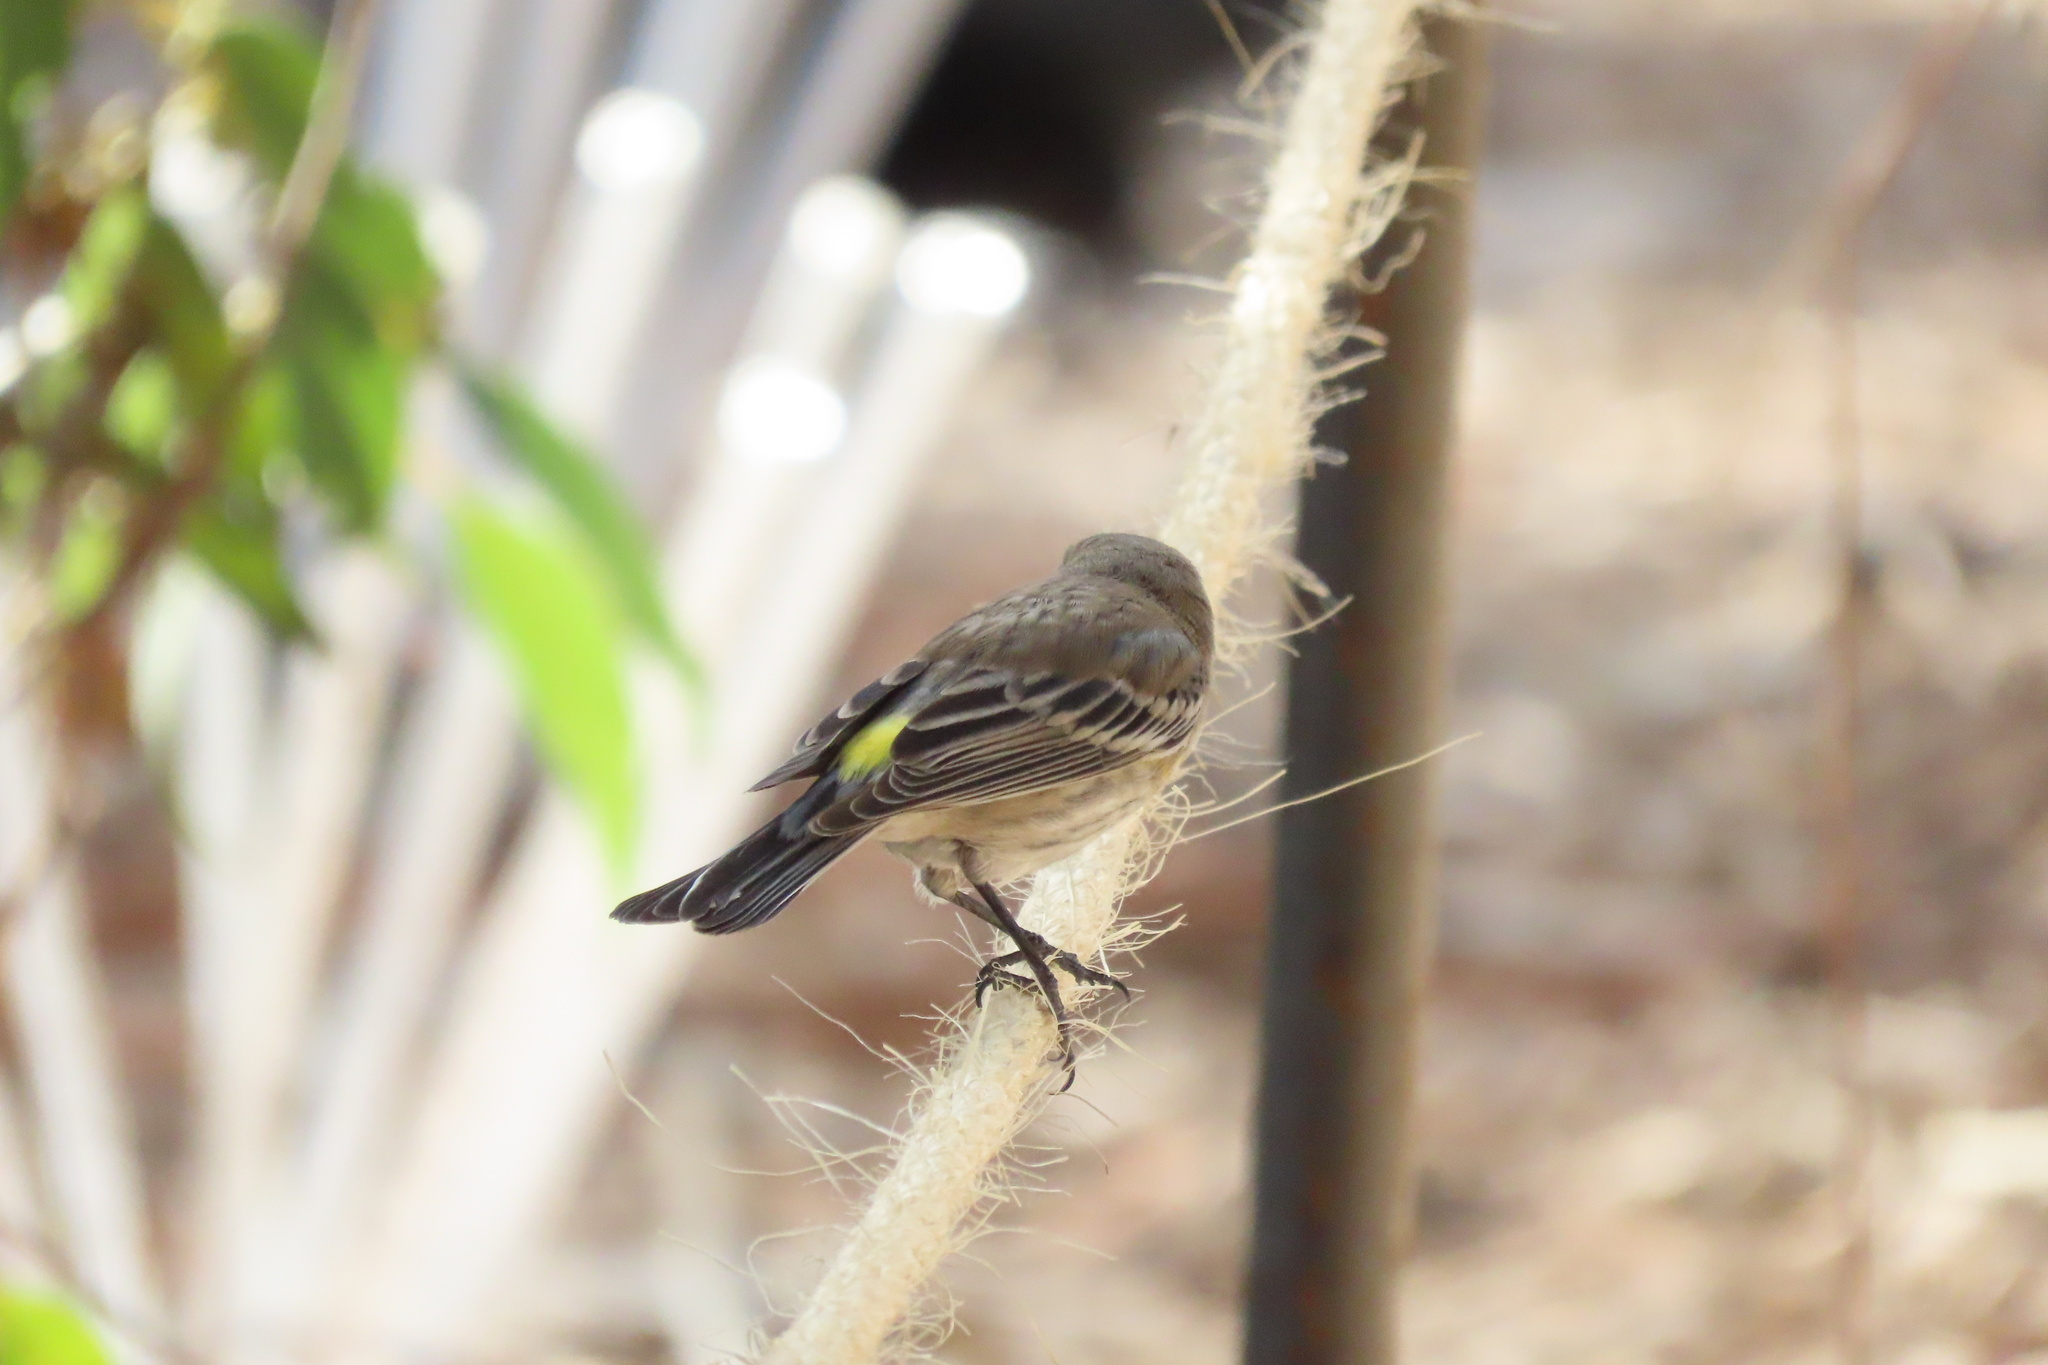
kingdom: Animalia
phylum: Chordata
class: Aves
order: Passeriformes
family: Parulidae
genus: Setophaga
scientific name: Setophaga coronata
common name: Myrtle warbler
